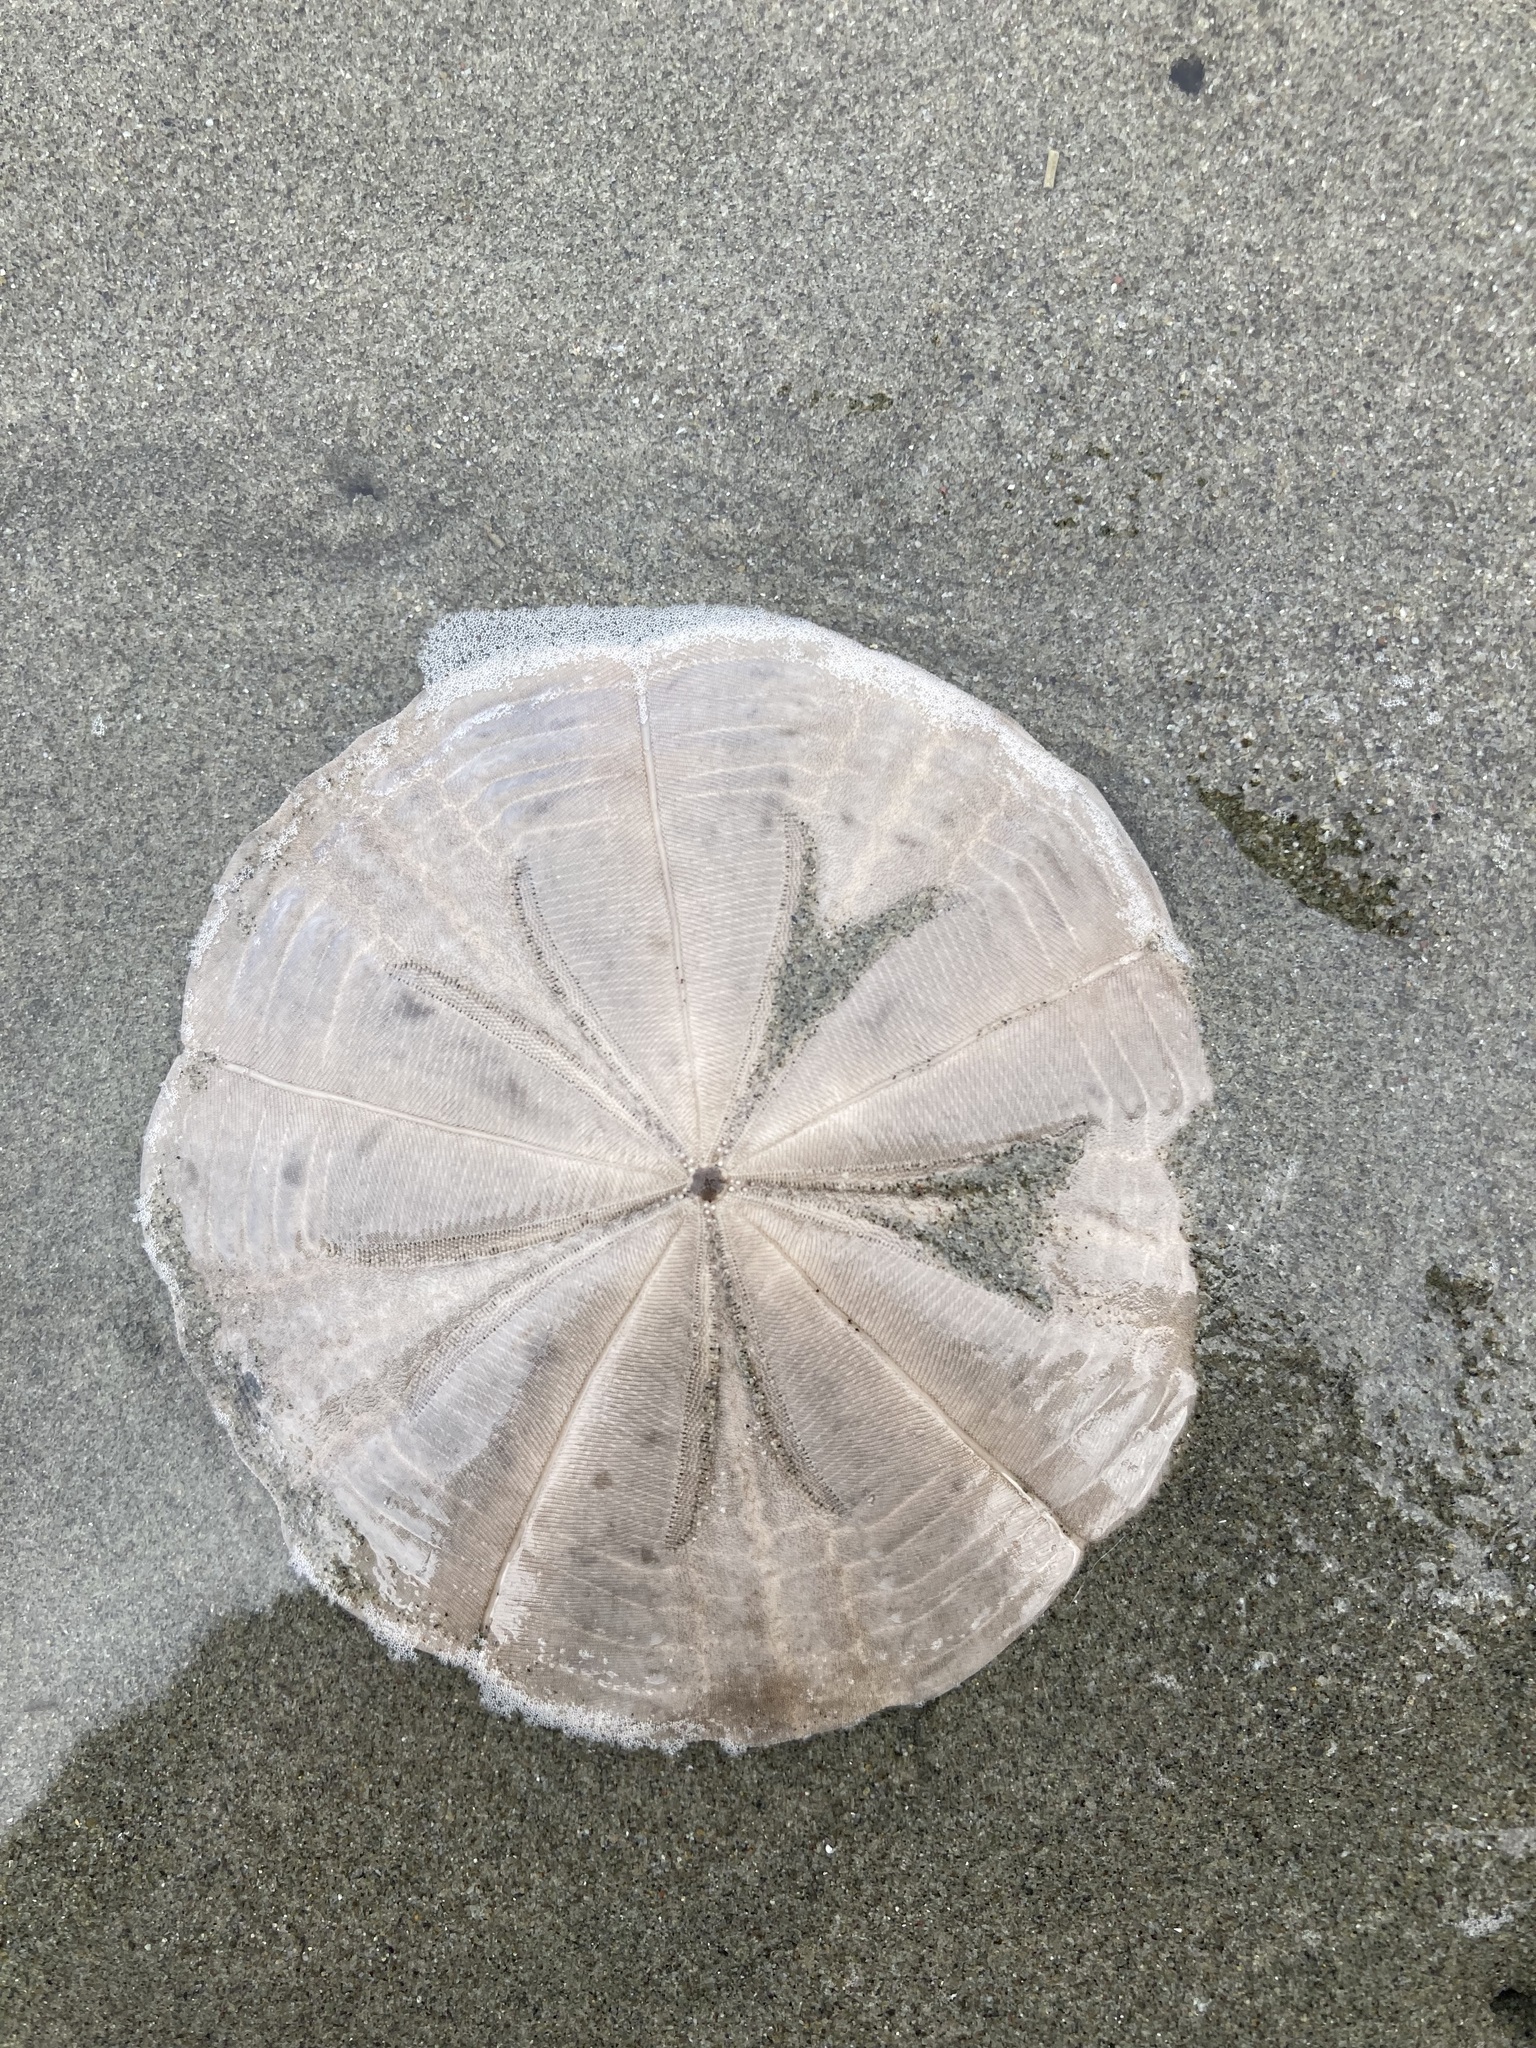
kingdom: Animalia
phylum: Echinodermata
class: Echinoidea
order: Clypeasteroida
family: Clypeasteridae
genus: Fellaster
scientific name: Fellaster zelandiae
